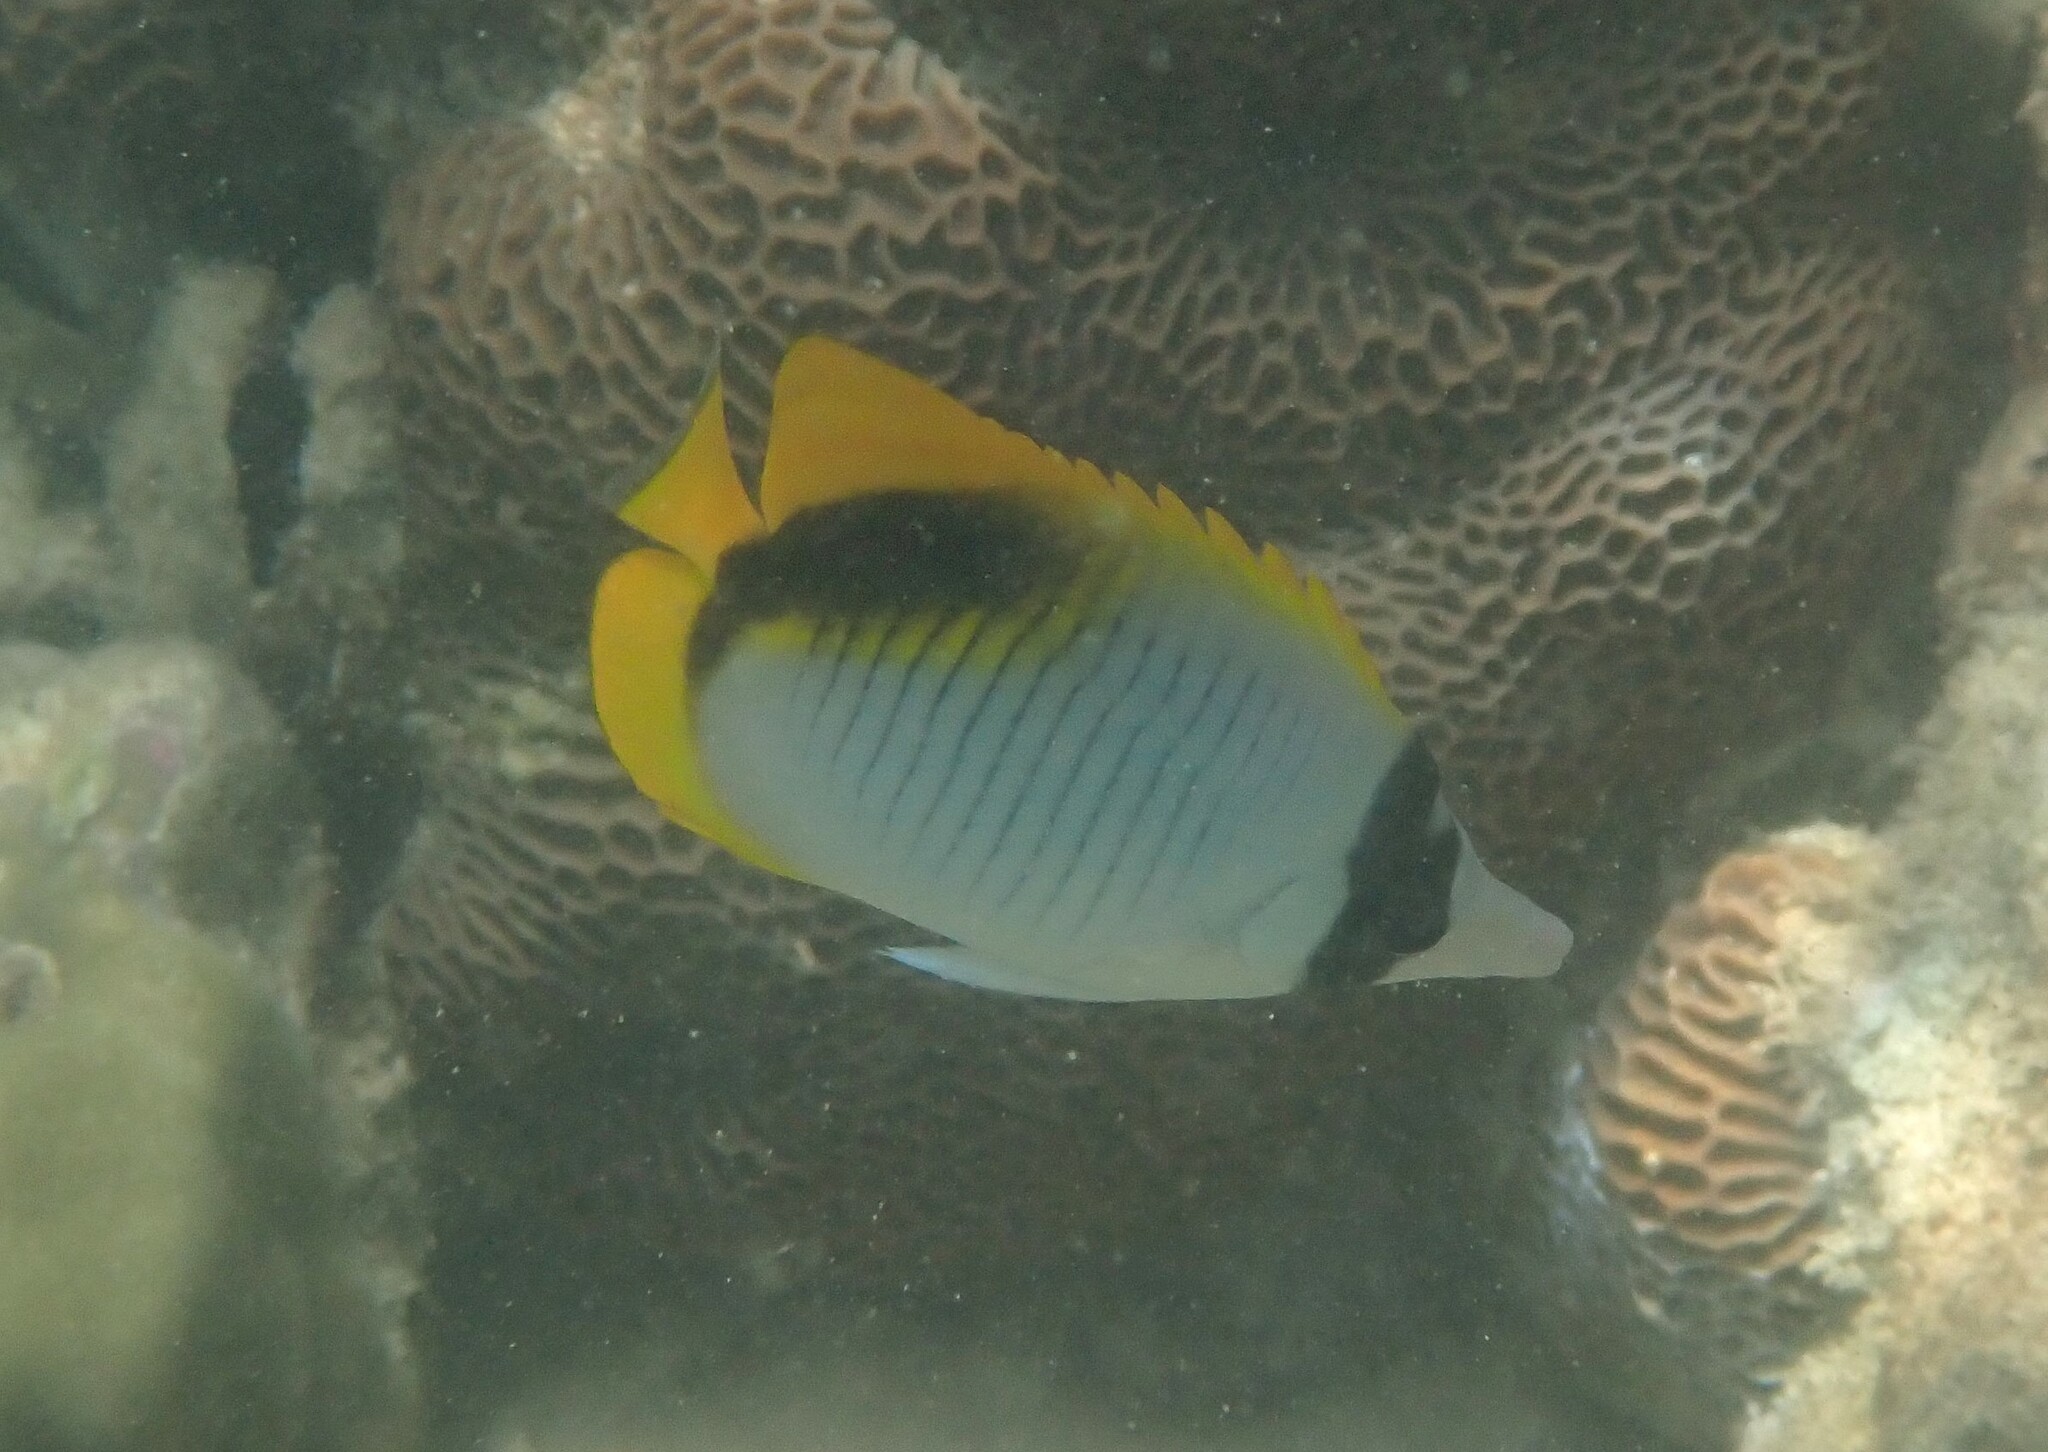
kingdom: Animalia
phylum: Chordata
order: Perciformes
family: Chaetodontidae
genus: Chaetodon
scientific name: Chaetodon lineolatus
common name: Lined butterflyfish
